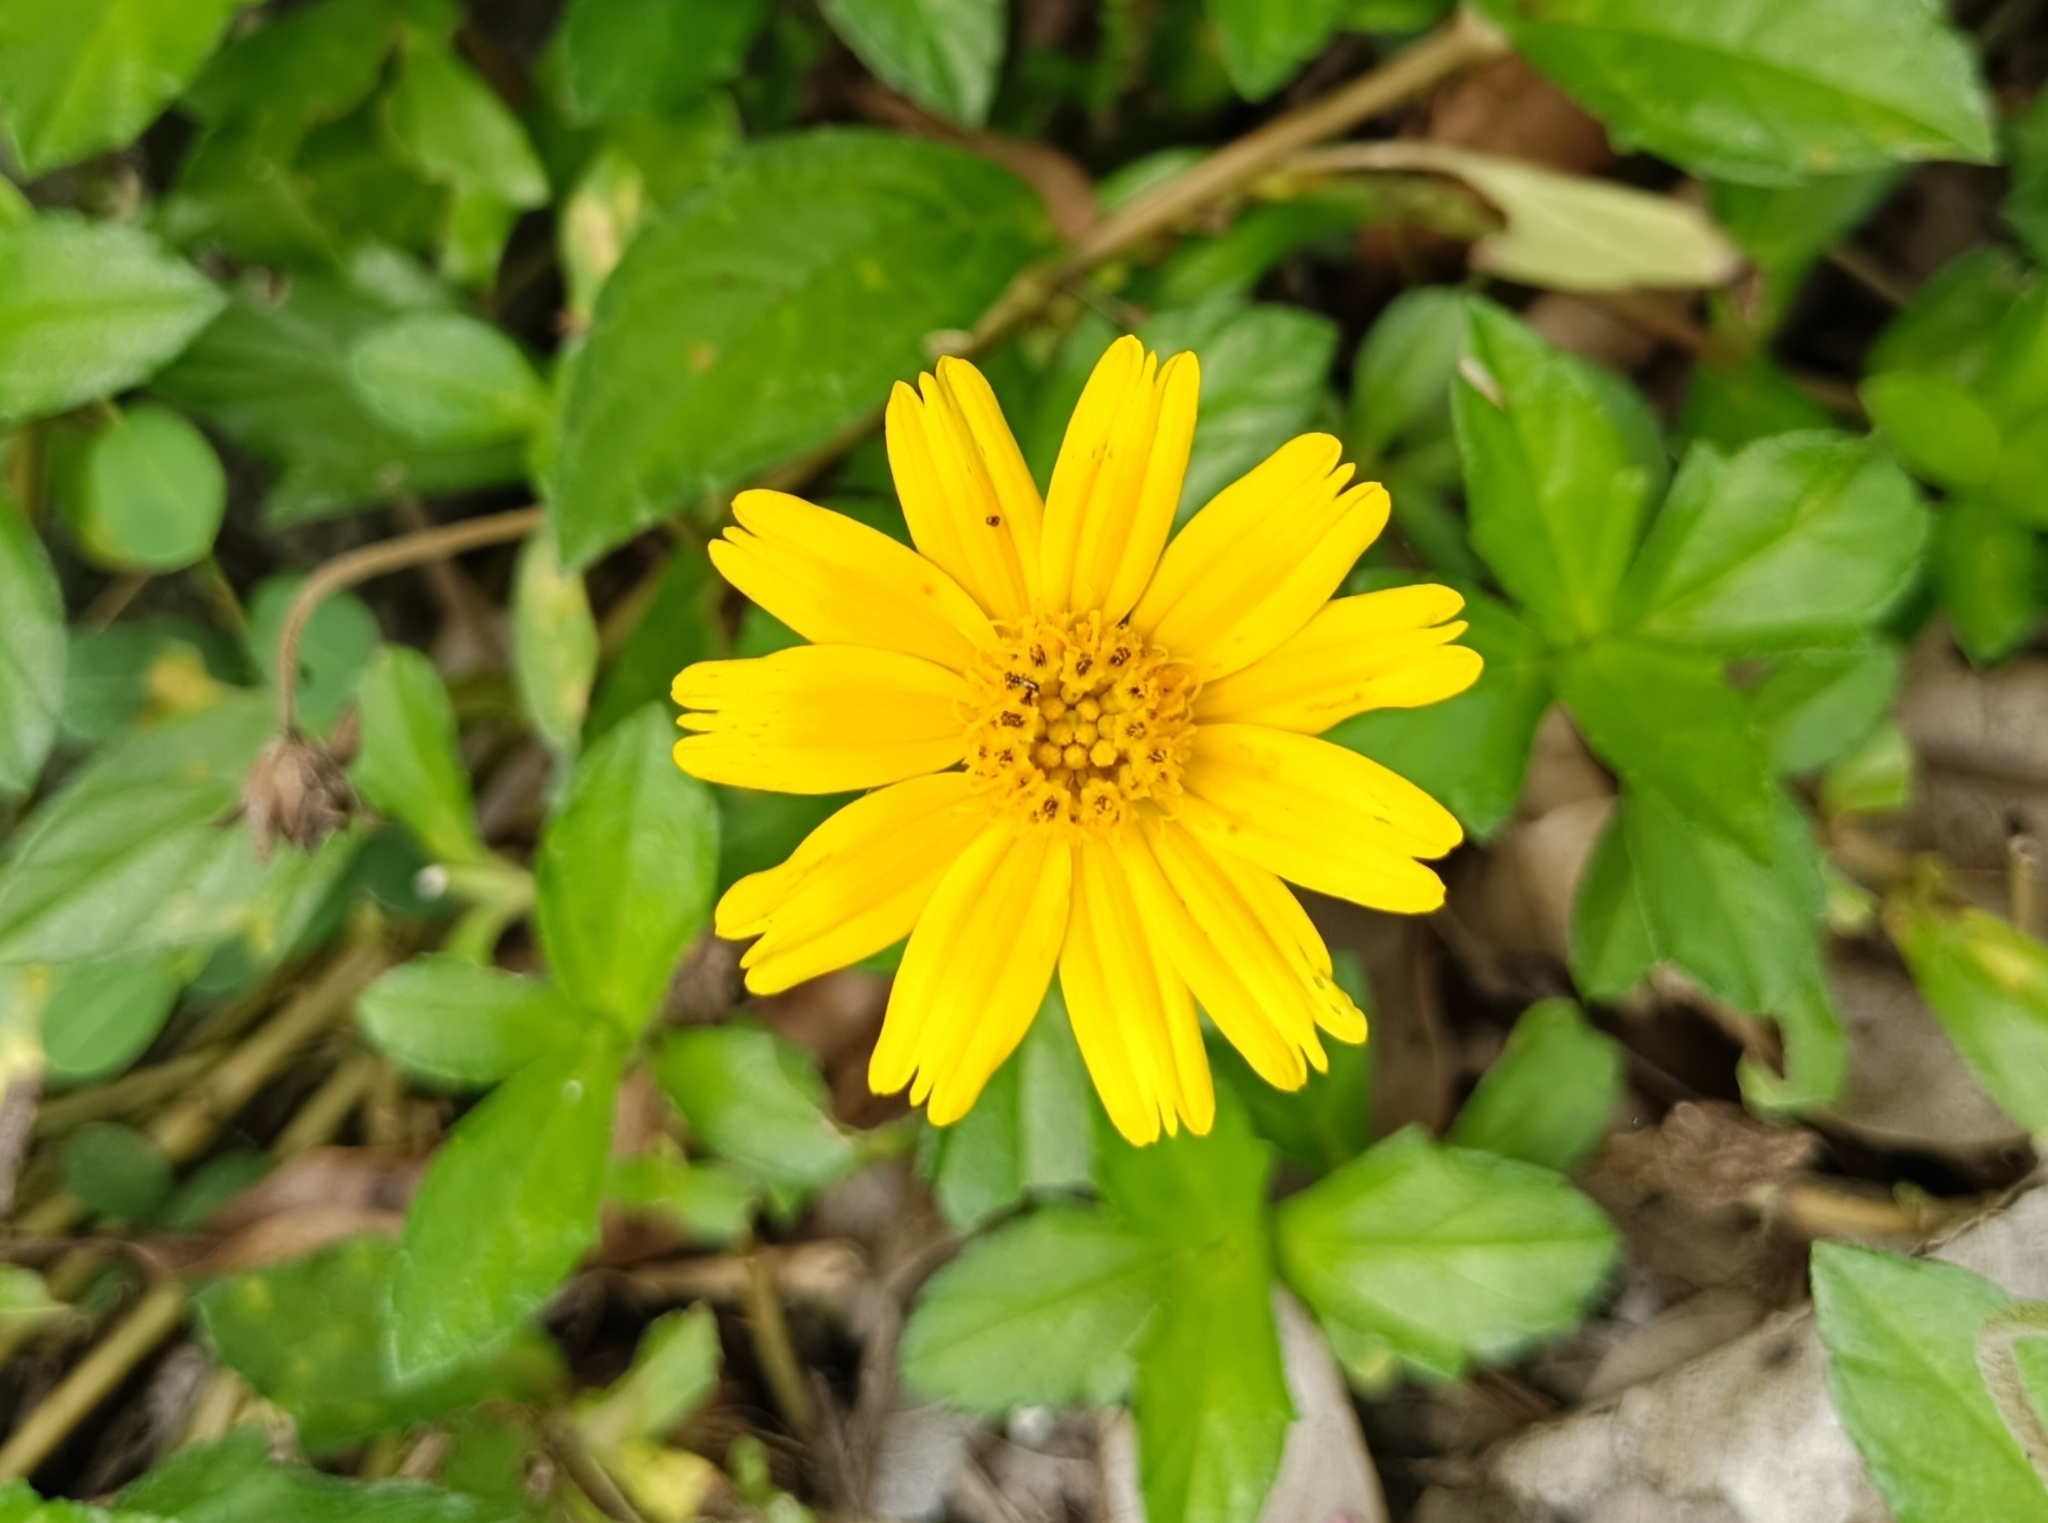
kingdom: Plantae
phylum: Tracheophyta
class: Magnoliopsida
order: Asterales
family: Asteraceae
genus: Sphagneticola
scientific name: Sphagneticola trilobata
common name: Bay biscayne creeping-oxeye
